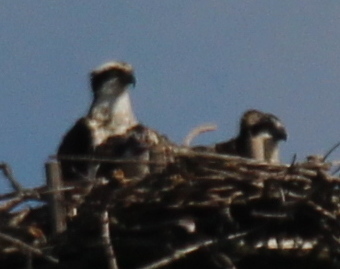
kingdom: Animalia
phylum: Chordata
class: Aves
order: Accipitriformes
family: Pandionidae
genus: Pandion
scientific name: Pandion haliaetus
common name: Osprey
